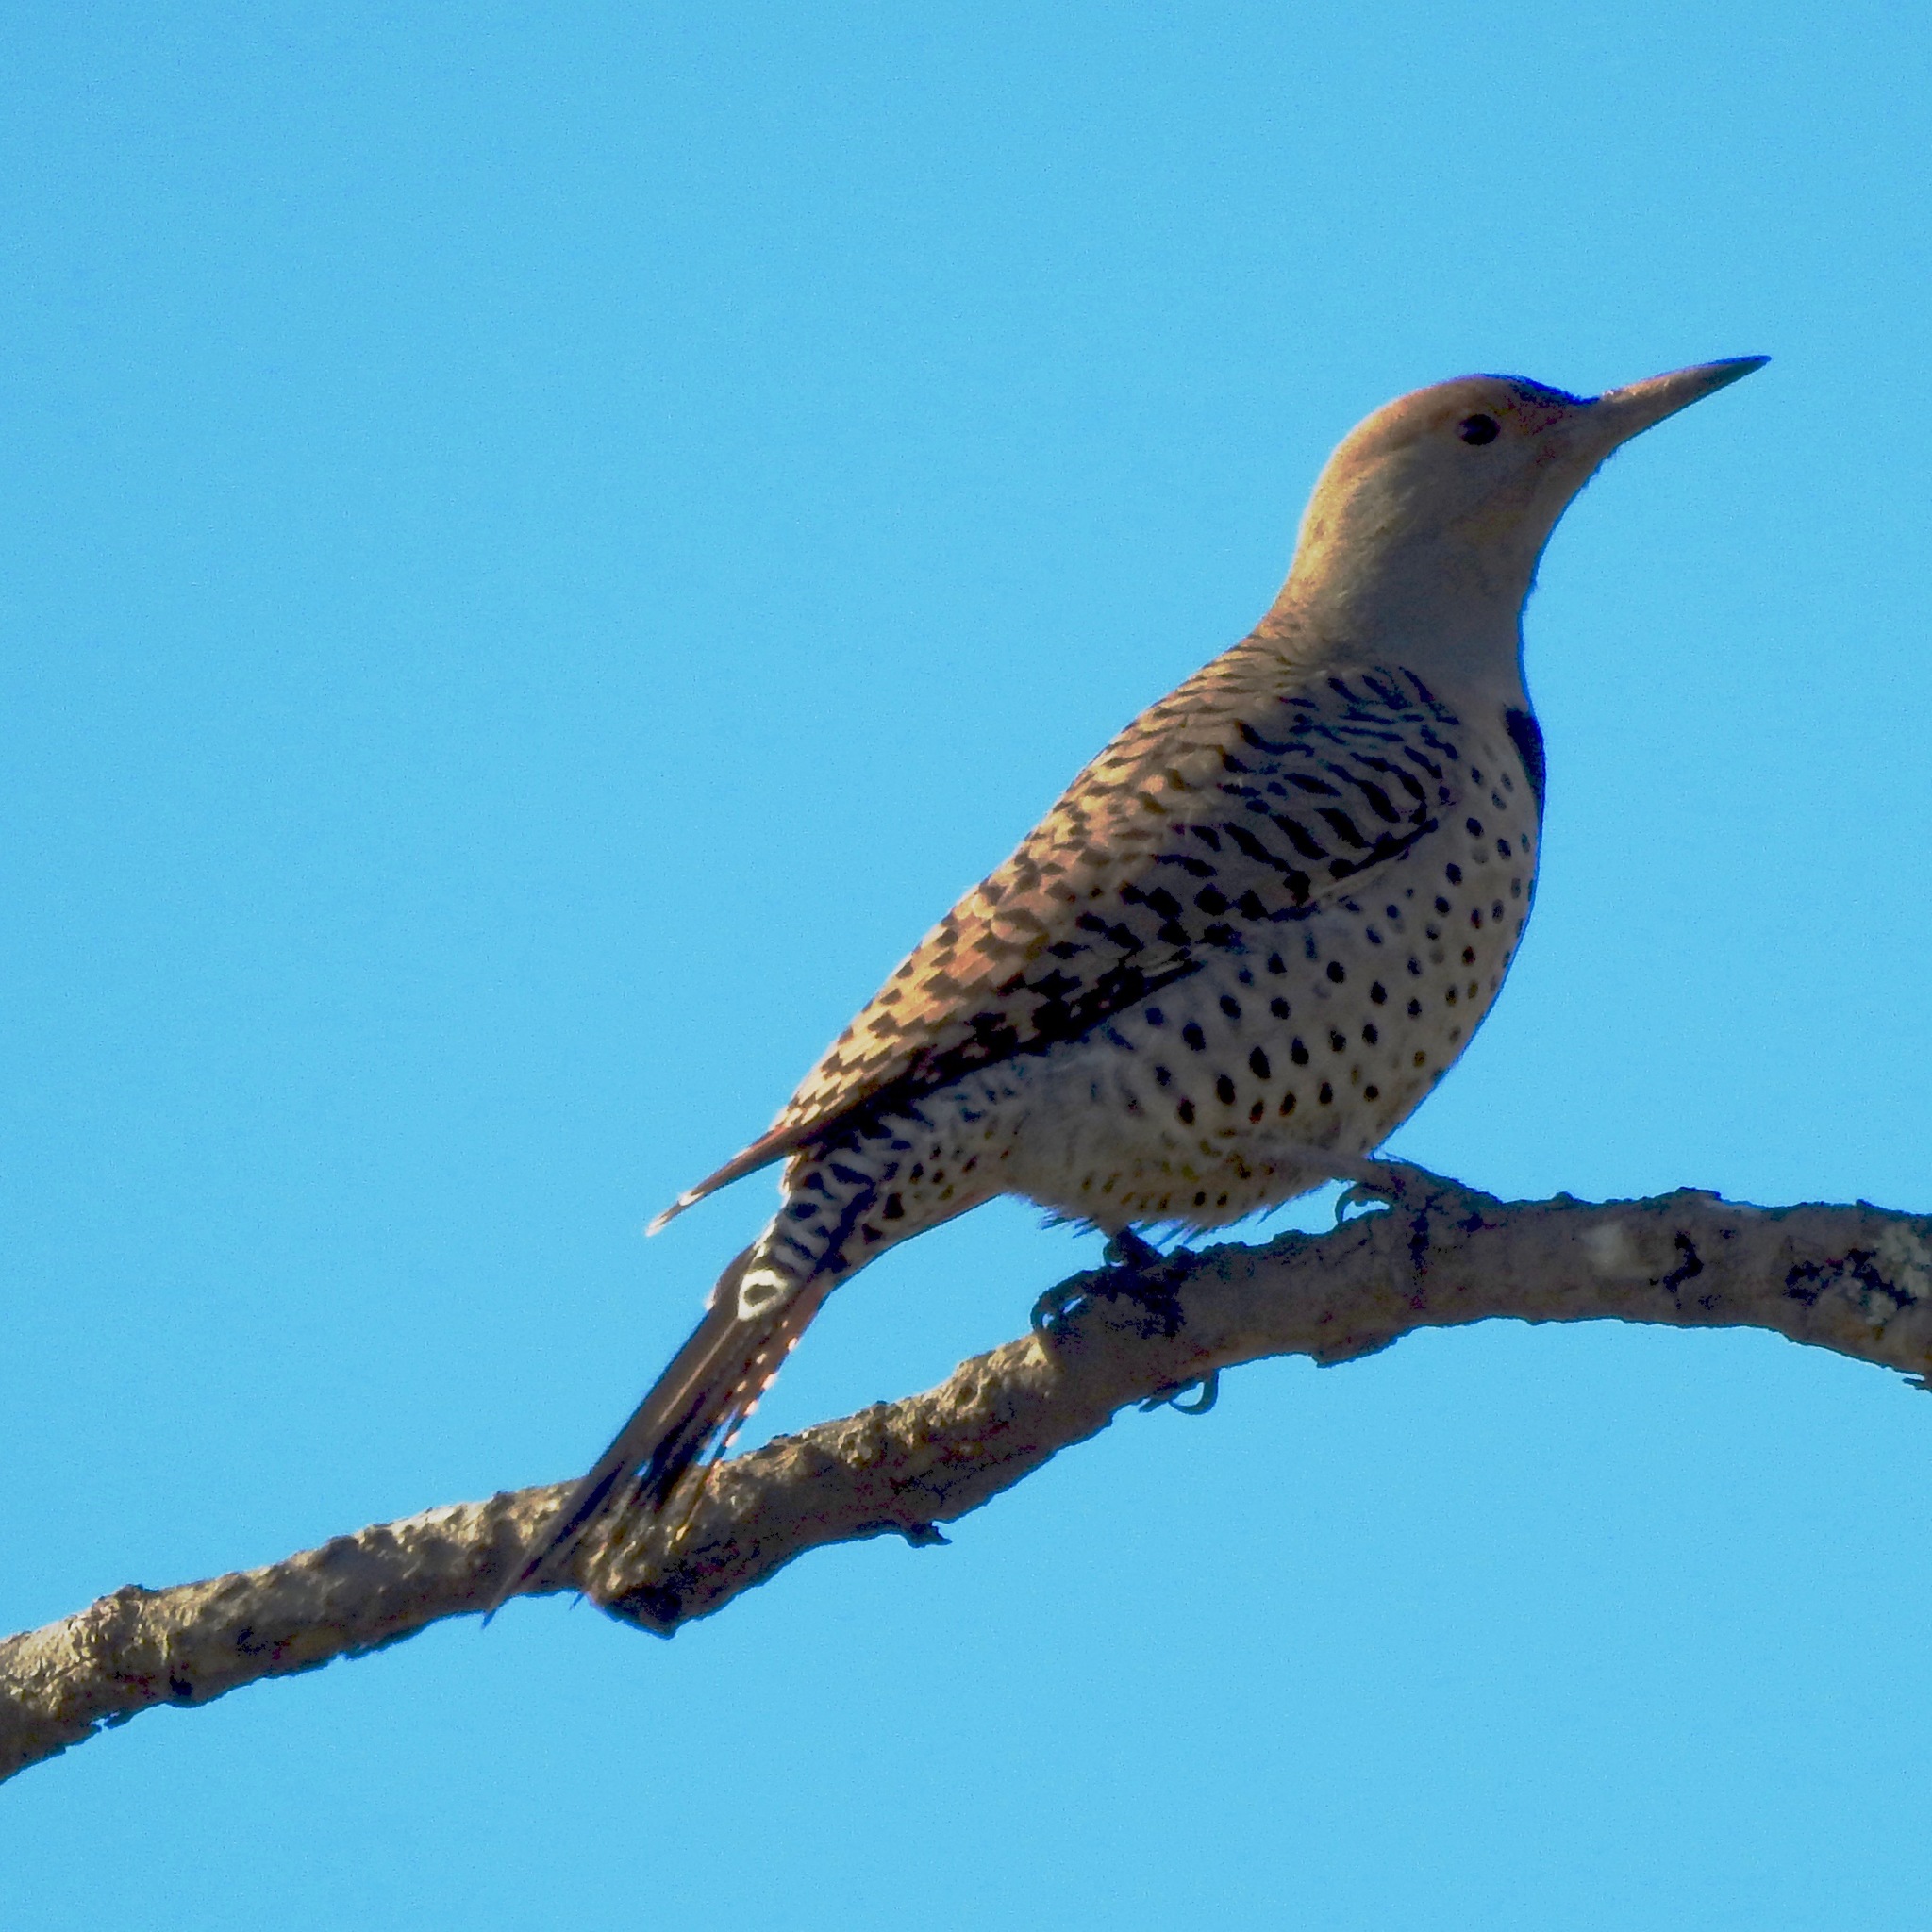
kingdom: Animalia
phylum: Chordata
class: Aves
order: Piciformes
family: Picidae
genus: Colaptes
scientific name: Colaptes auratus
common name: Northern flicker
